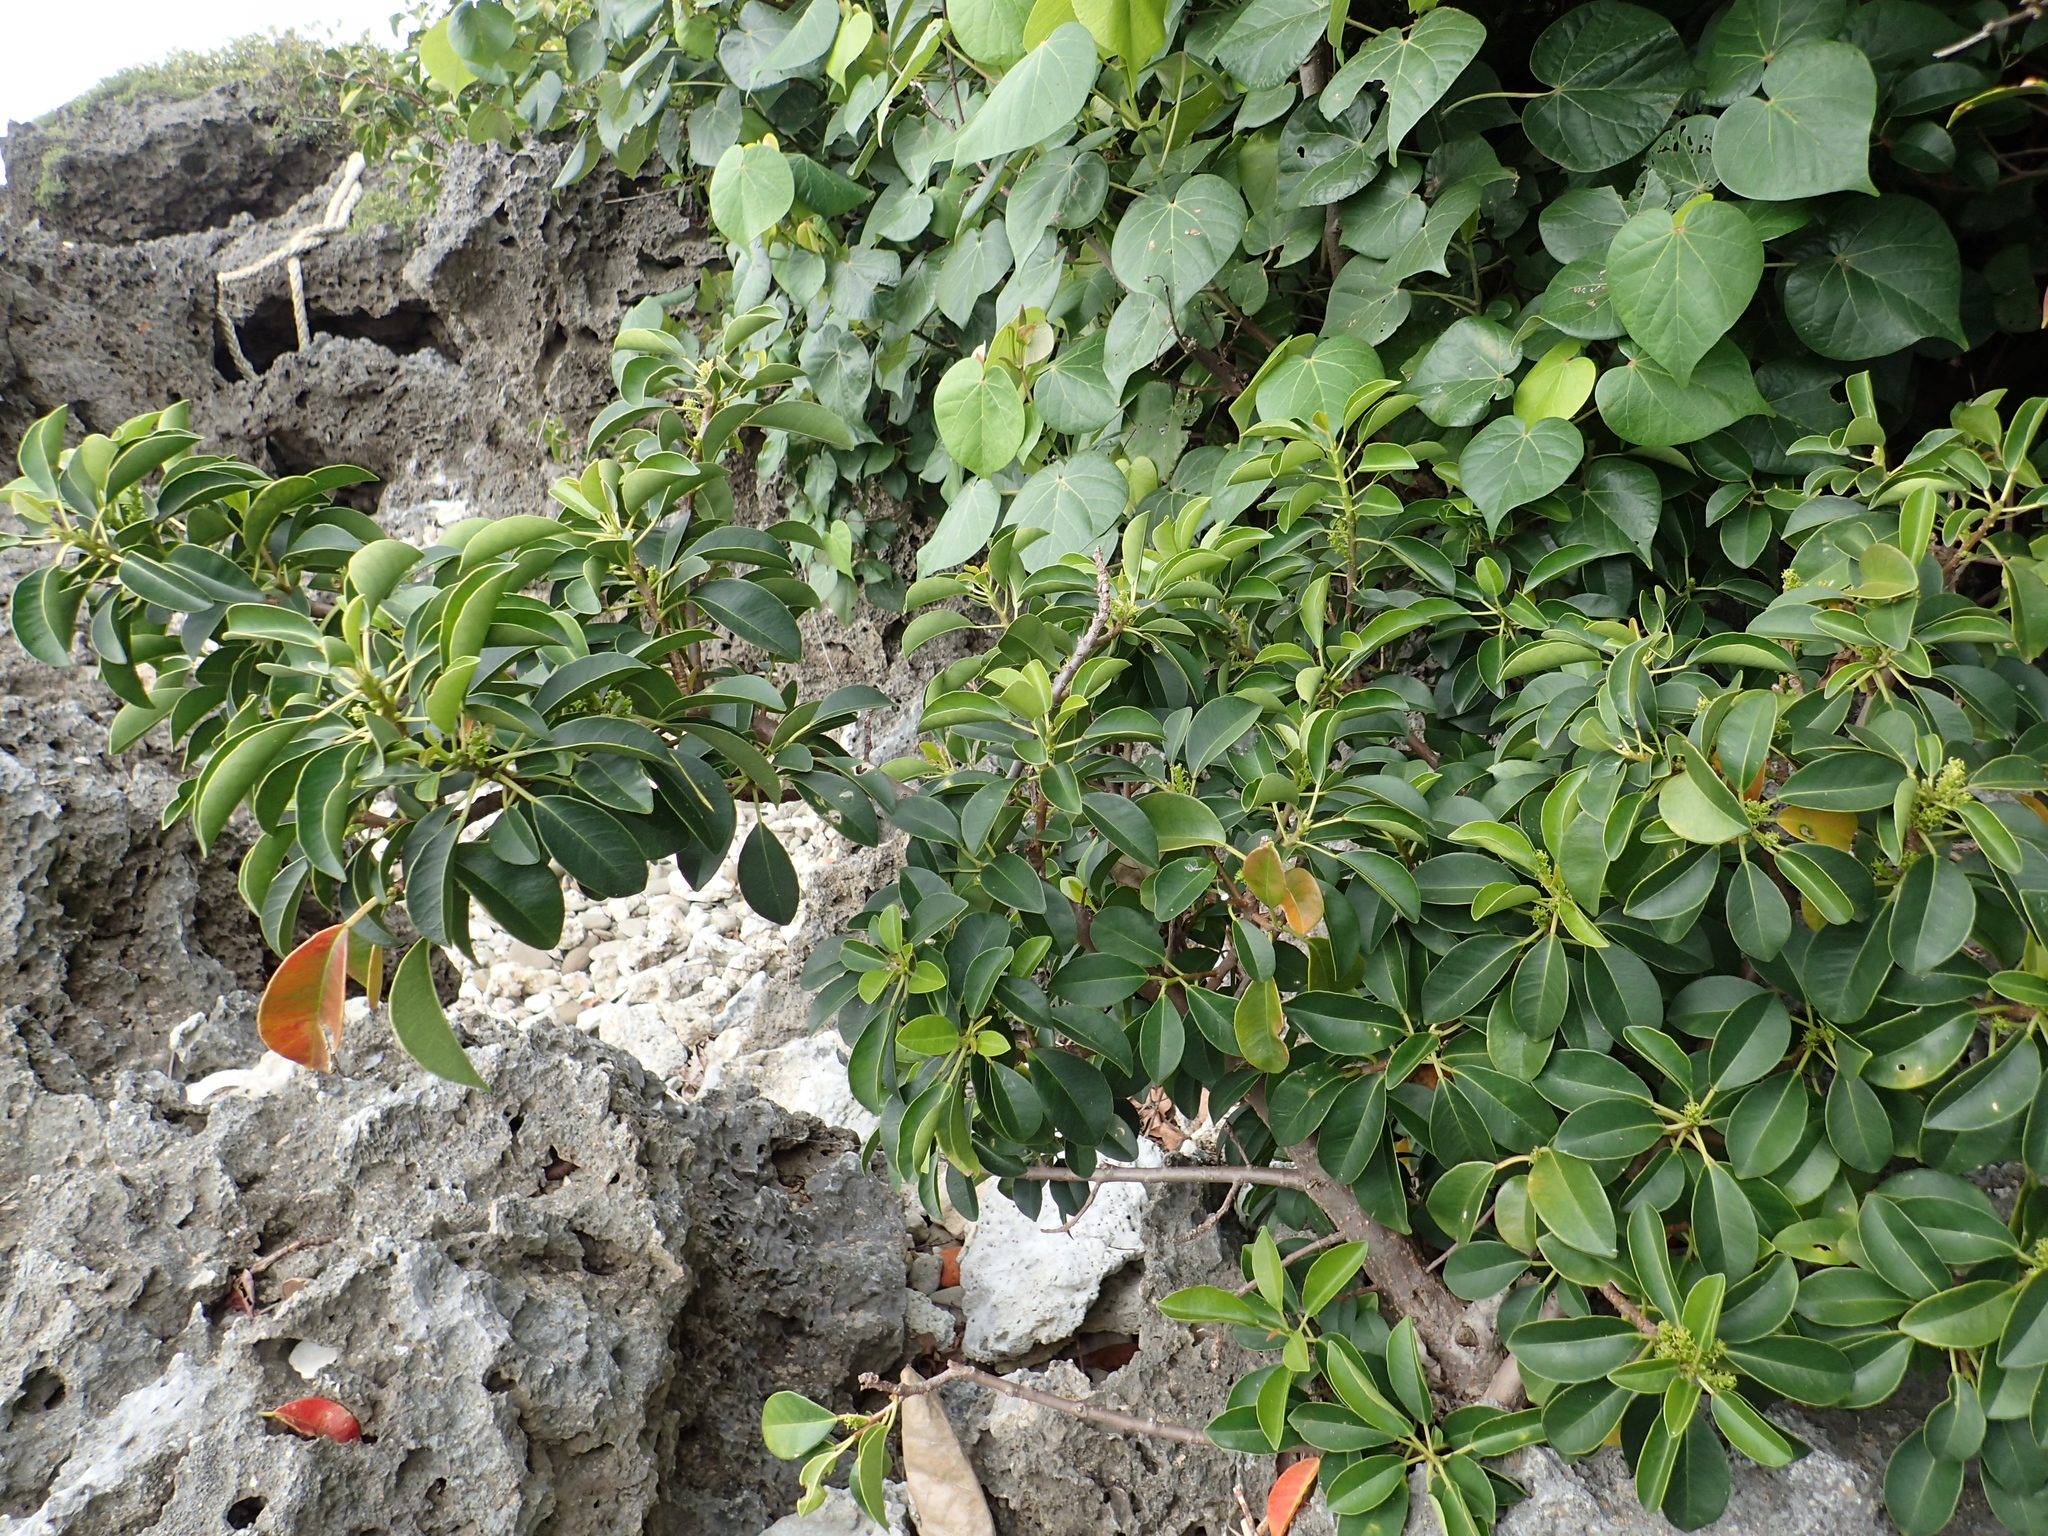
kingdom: Plantae
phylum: Tracheophyta
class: Magnoliopsida
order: Malpighiales
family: Euphorbiaceae
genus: Excoecaria
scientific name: Excoecaria agallocha
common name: River poisontree
